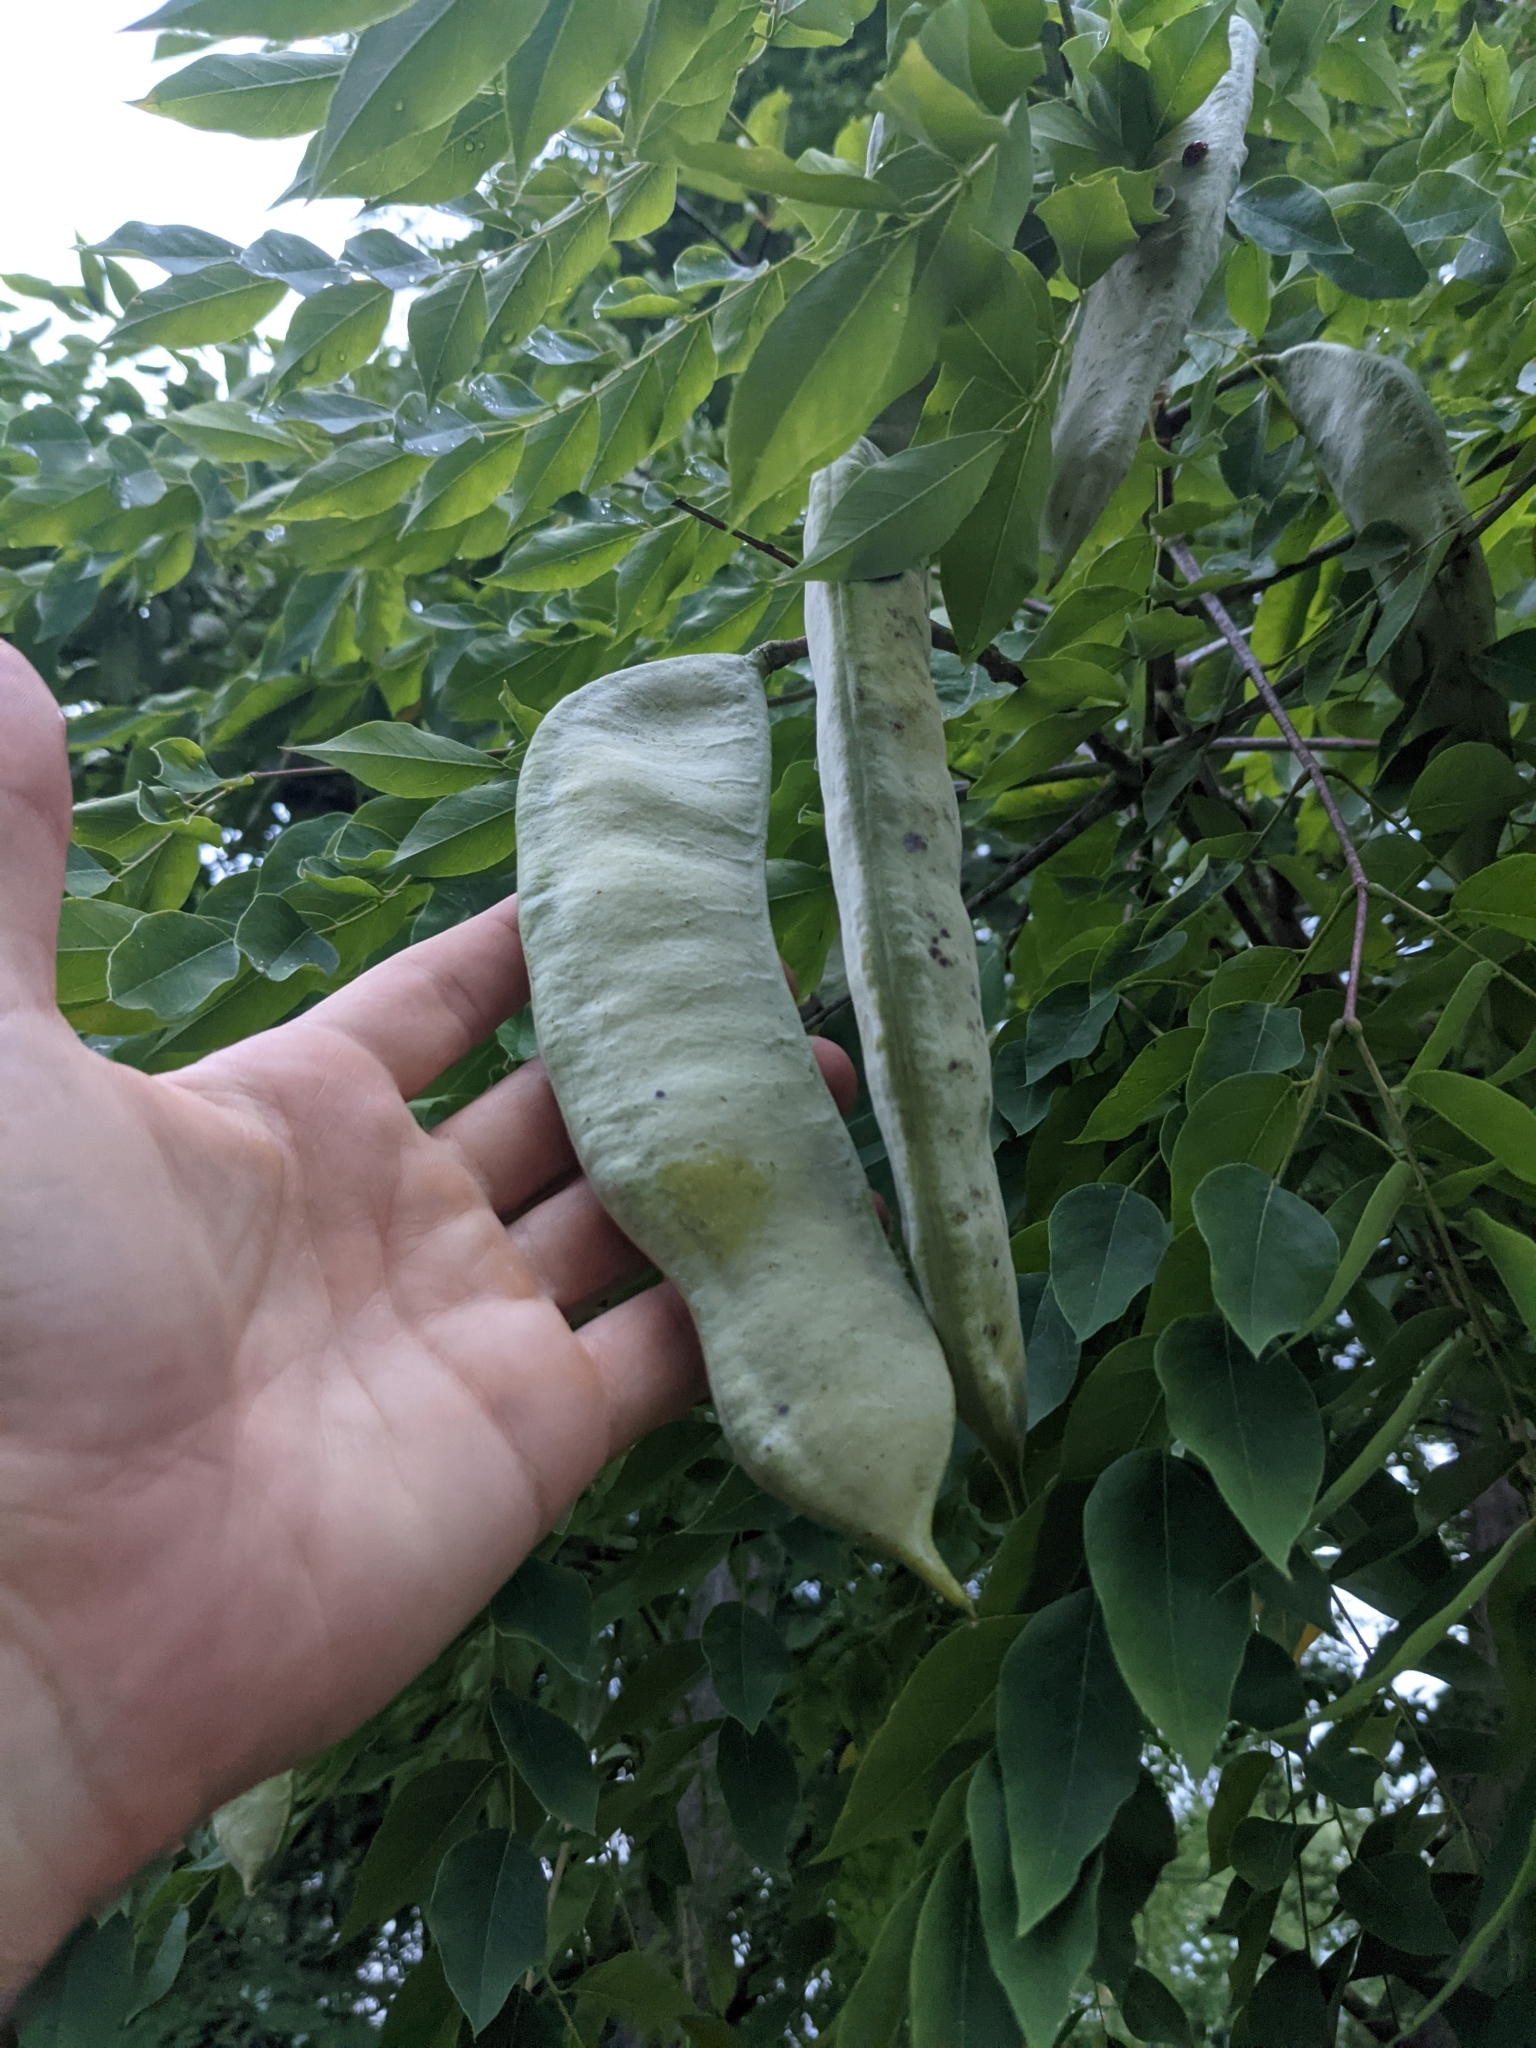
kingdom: Plantae
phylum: Tracheophyta
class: Magnoliopsida
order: Fabales
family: Fabaceae
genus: Gymnocladus
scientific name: Gymnocladus dioicus
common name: Kentucky coffee-tree
